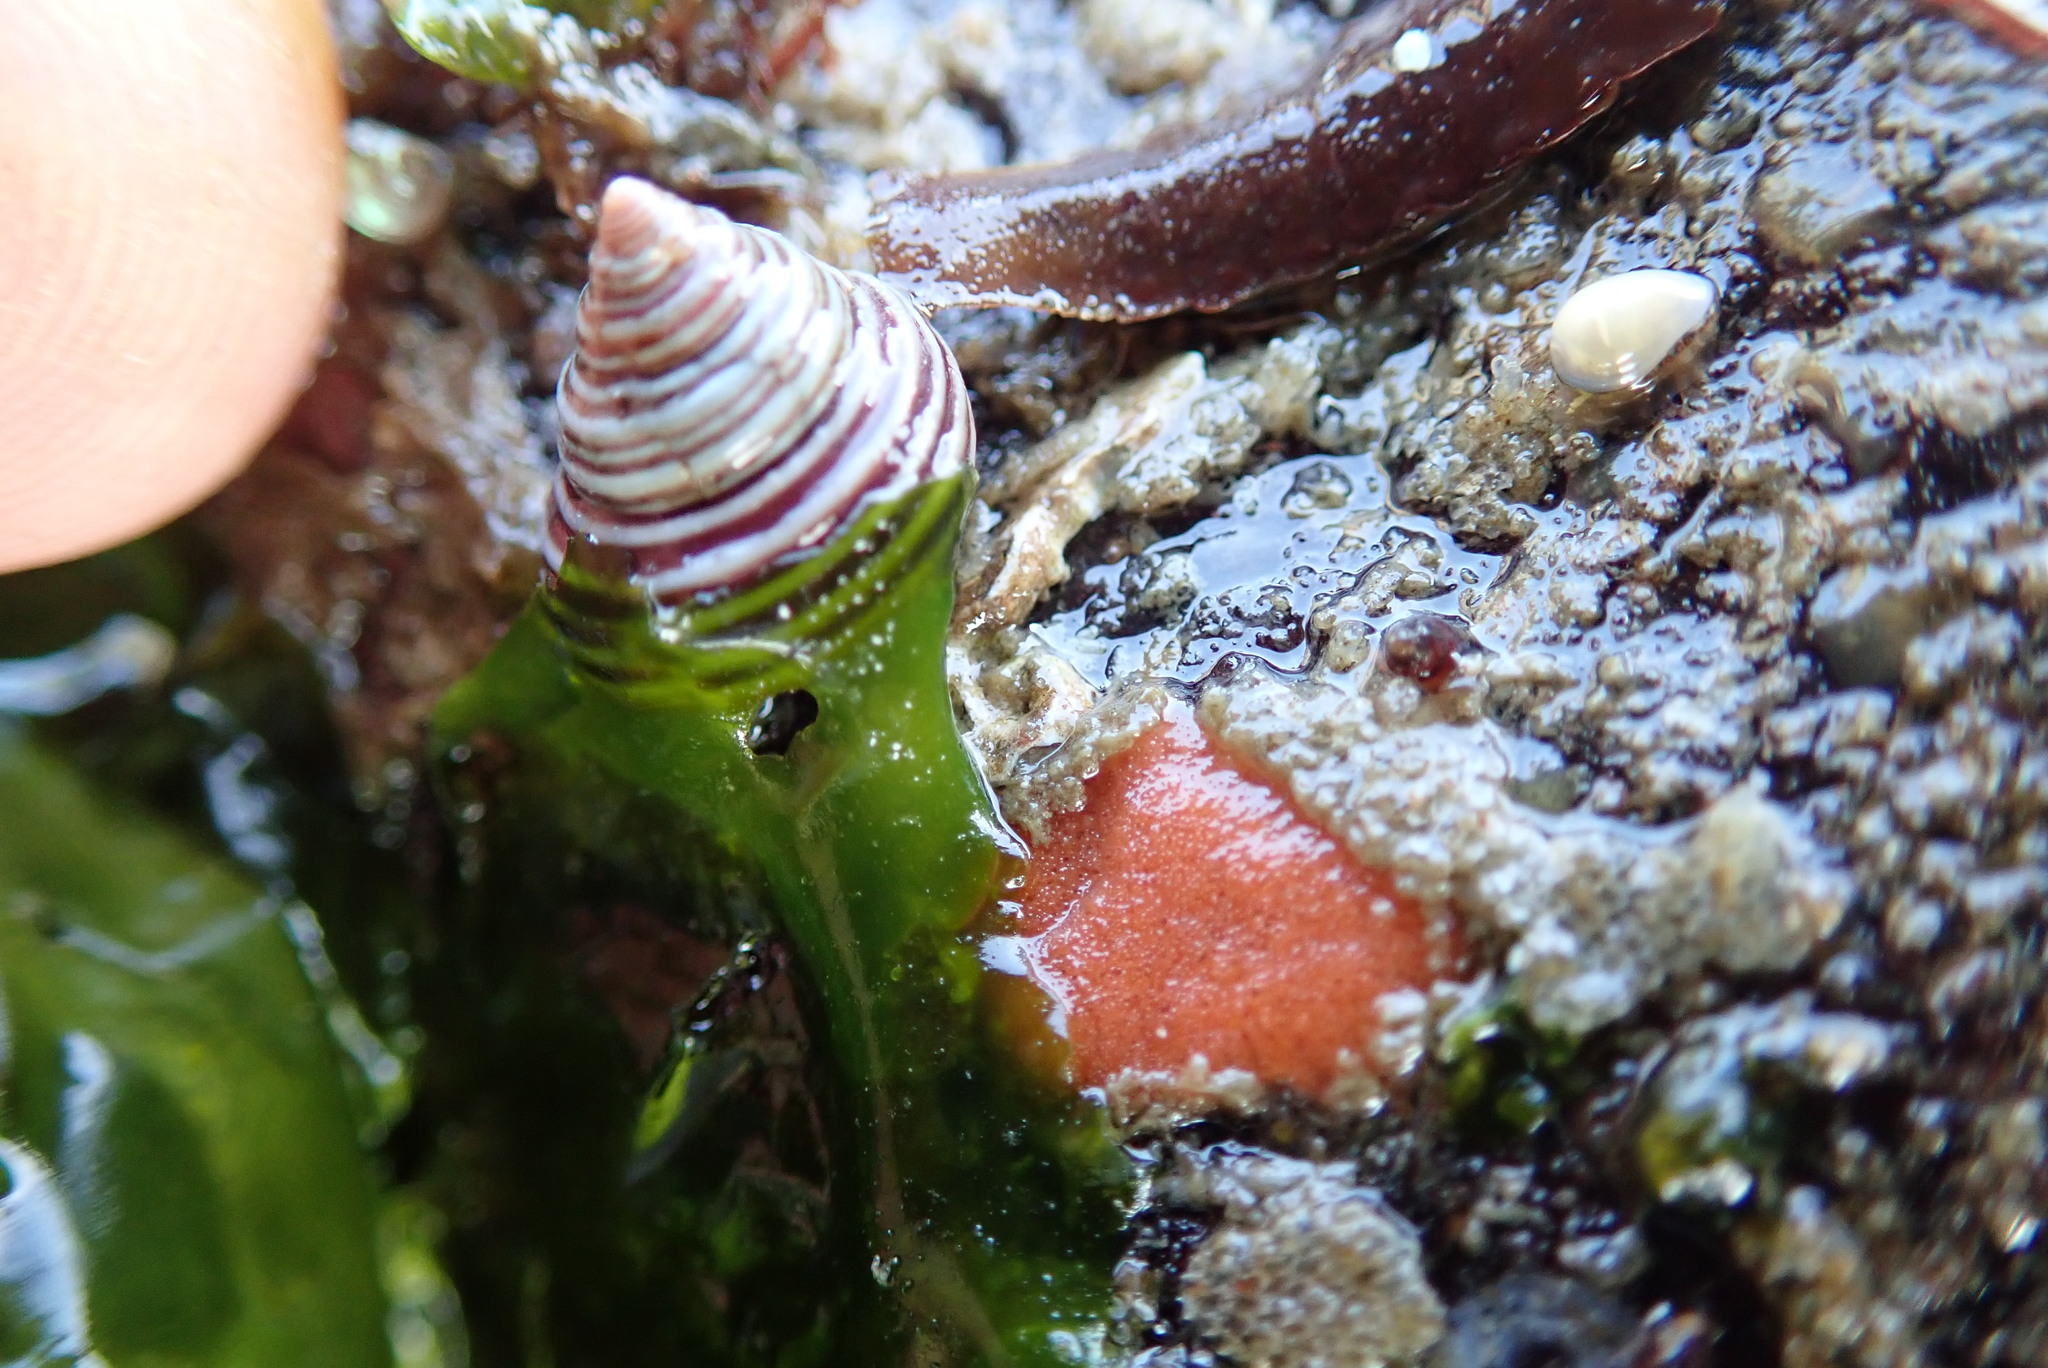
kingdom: Animalia
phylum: Mollusca
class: Gastropoda
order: Trochida
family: Calliostomatidae
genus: Calliostoma
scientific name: Calliostoma canaliculatum
